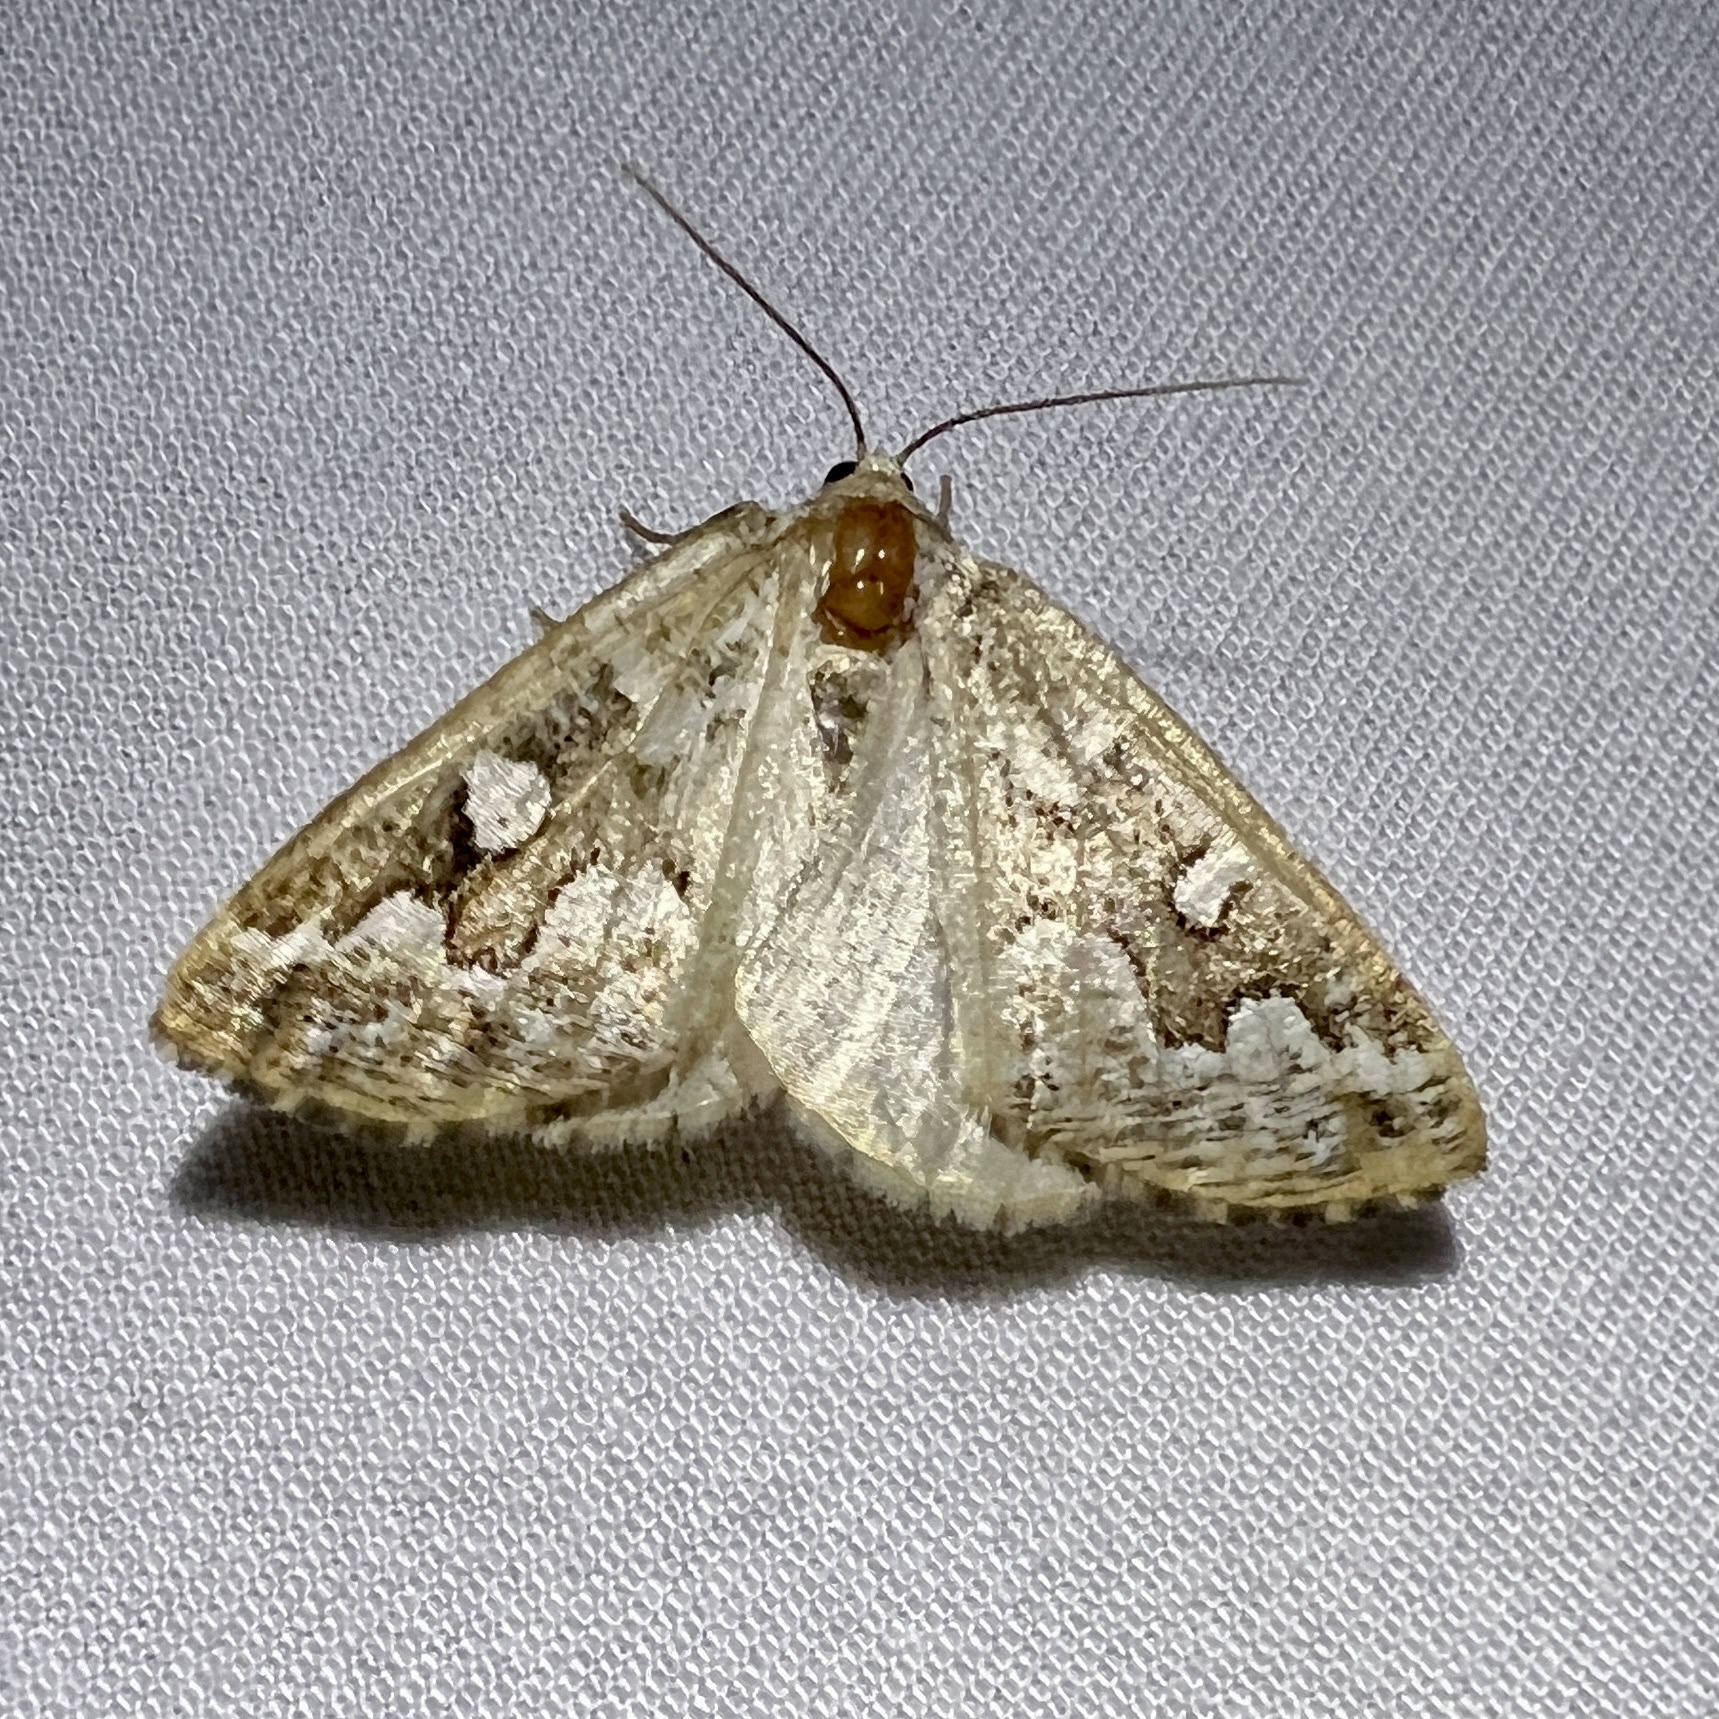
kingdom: Animalia
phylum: Arthropoda
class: Insecta
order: Lepidoptera
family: Geometridae
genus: Caripeta
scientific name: Caripeta divisata
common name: Gray spruce looper
